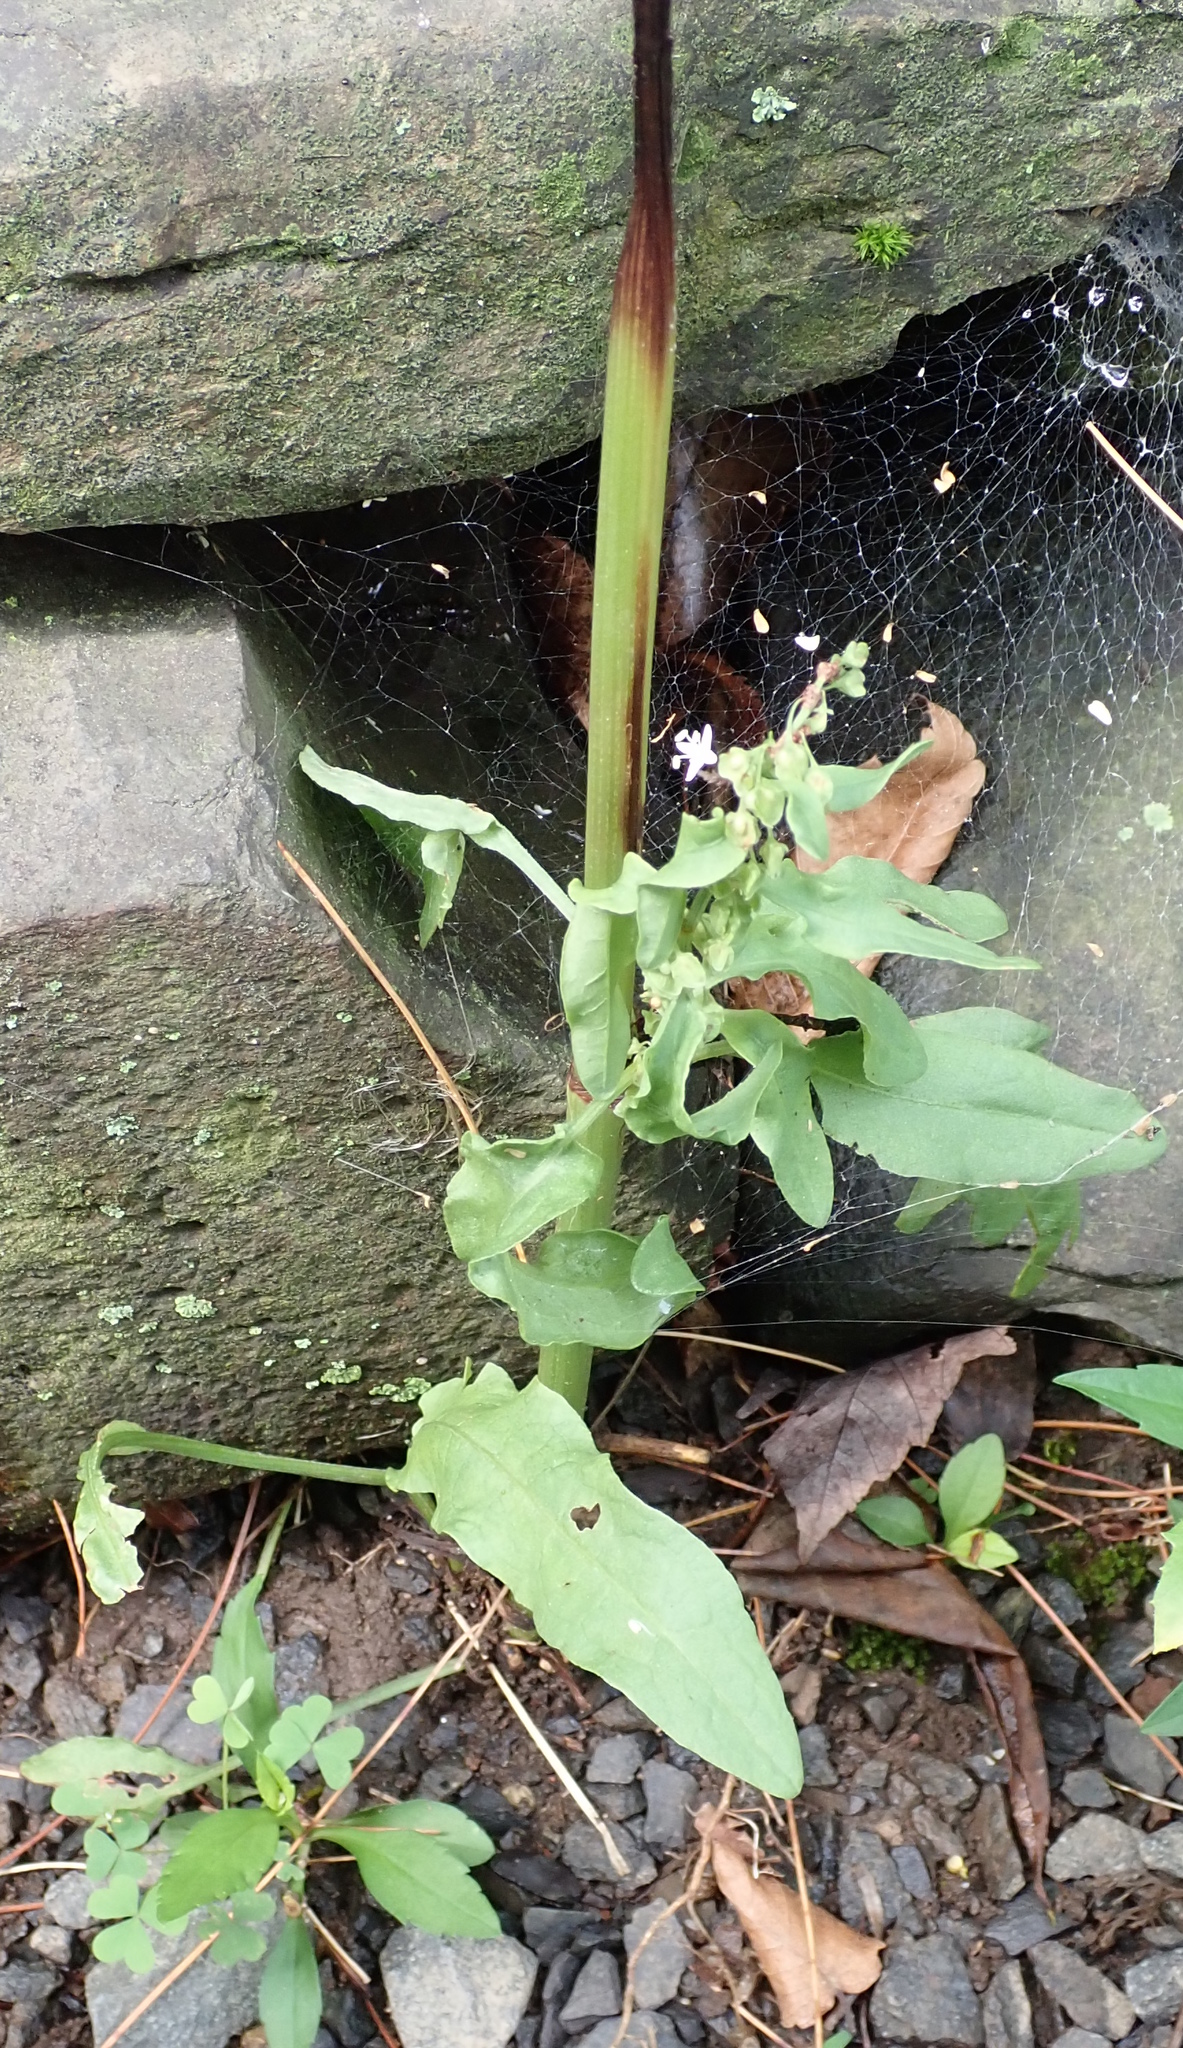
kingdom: Plantae
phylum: Tracheophyta
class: Magnoliopsida
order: Caryophyllales
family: Polygonaceae
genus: Rumex
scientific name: Rumex crispus
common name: Curled dock
